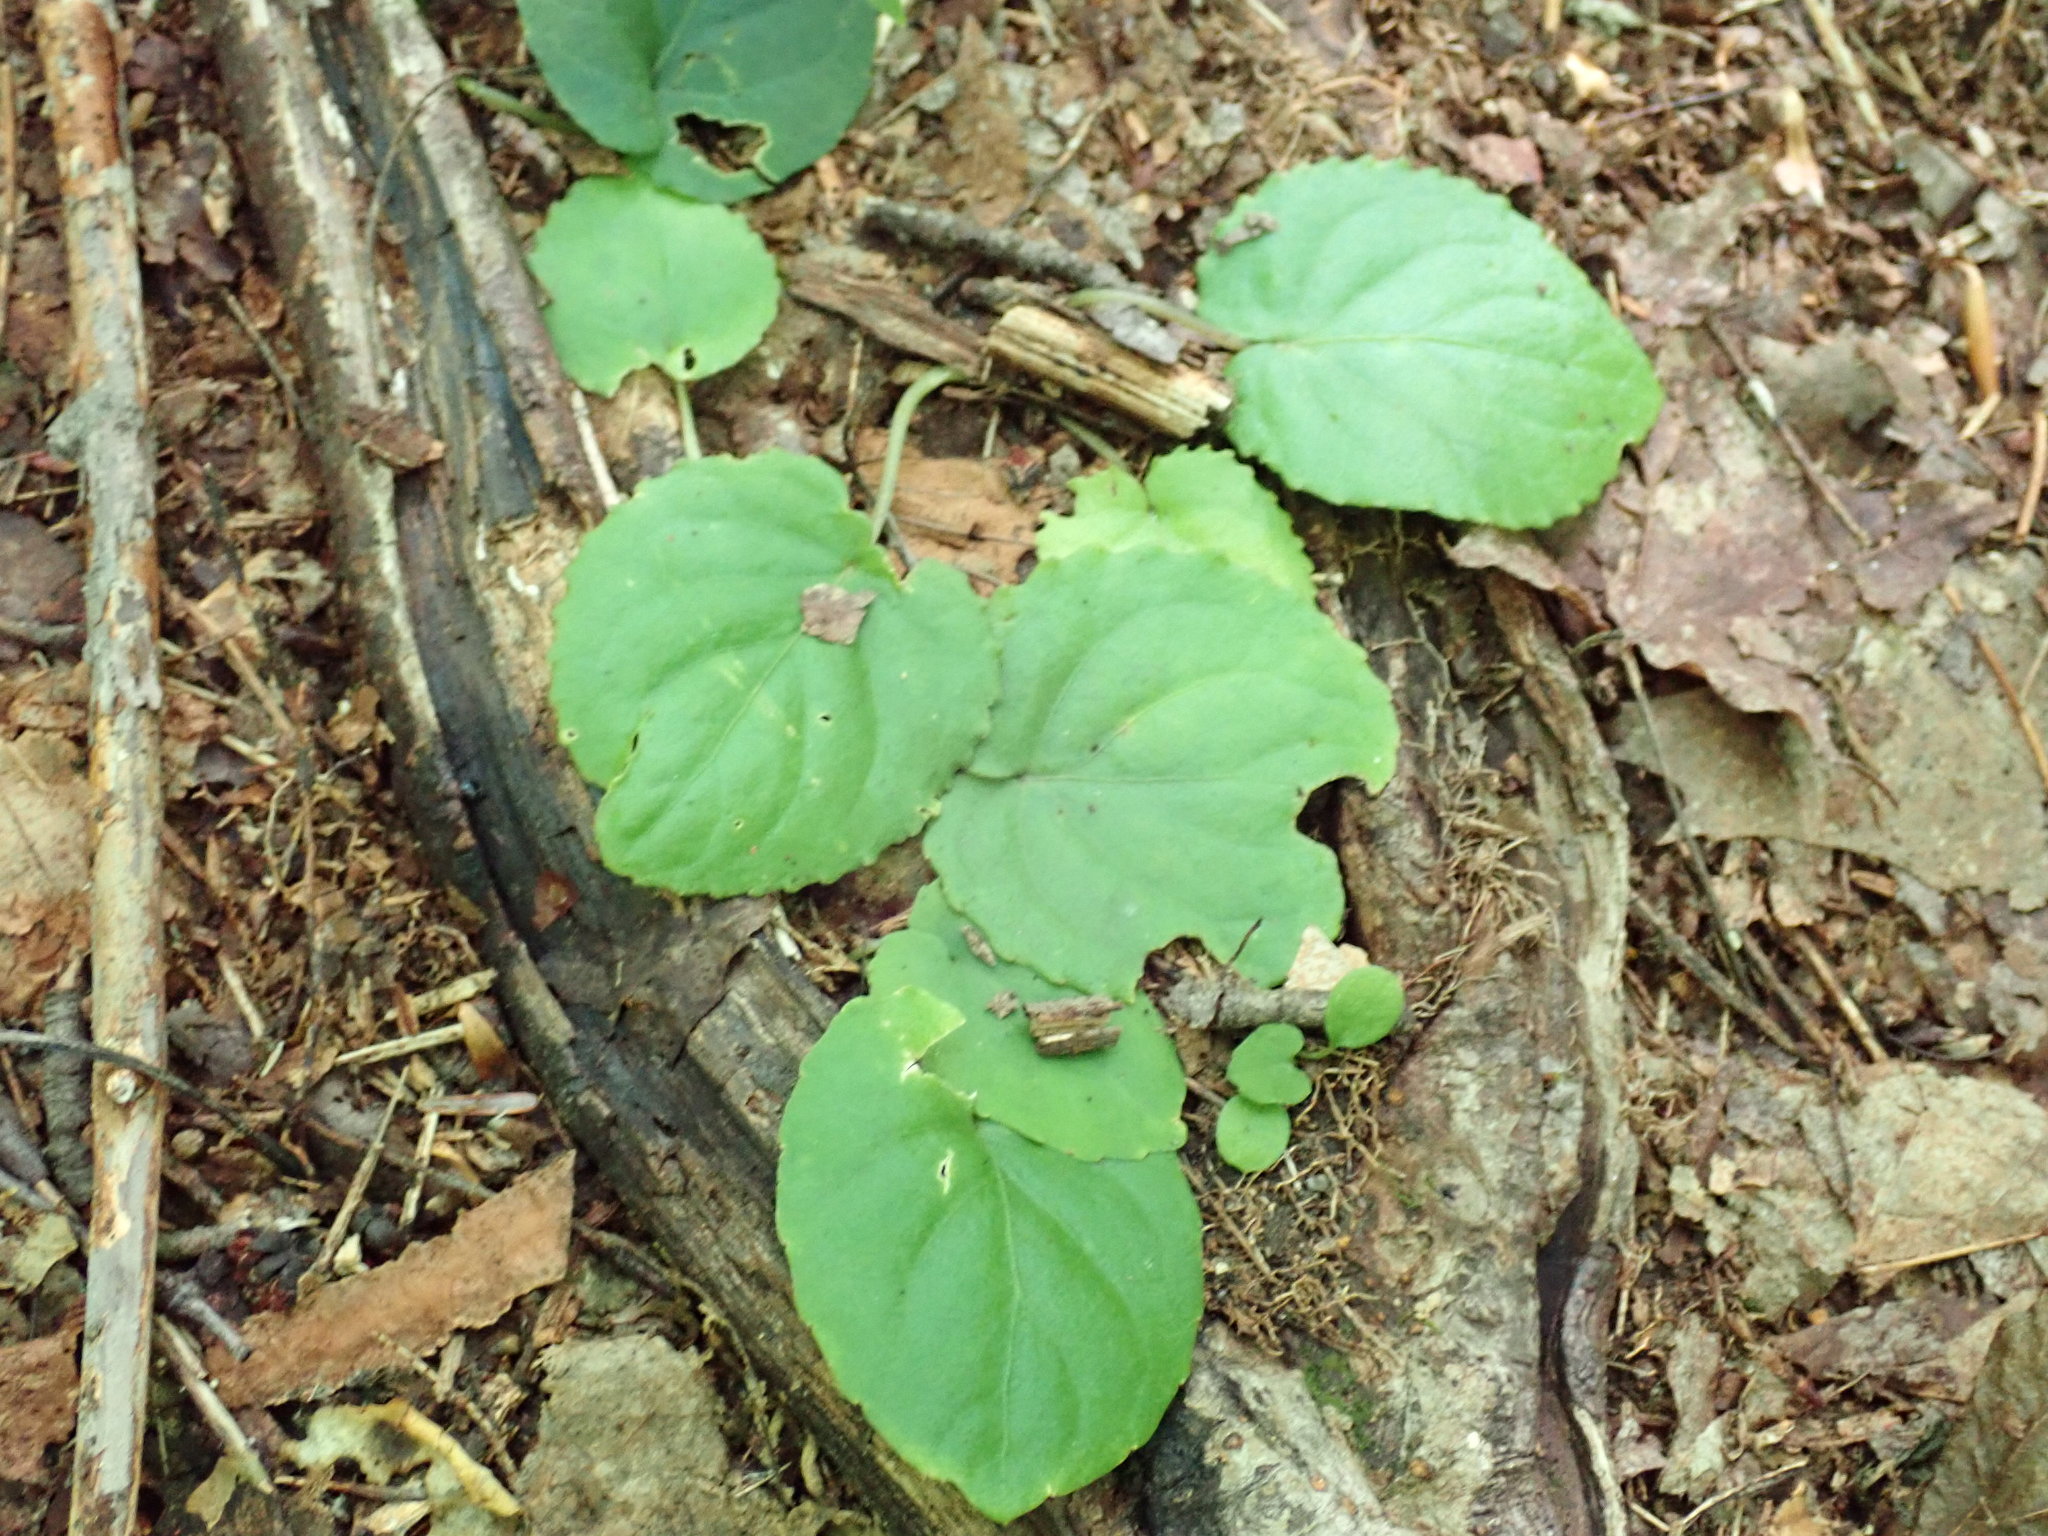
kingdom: Plantae
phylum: Tracheophyta
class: Magnoliopsida
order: Malpighiales
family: Violaceae
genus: Viola
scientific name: Viola rotundifolia
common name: Early yellow violet
